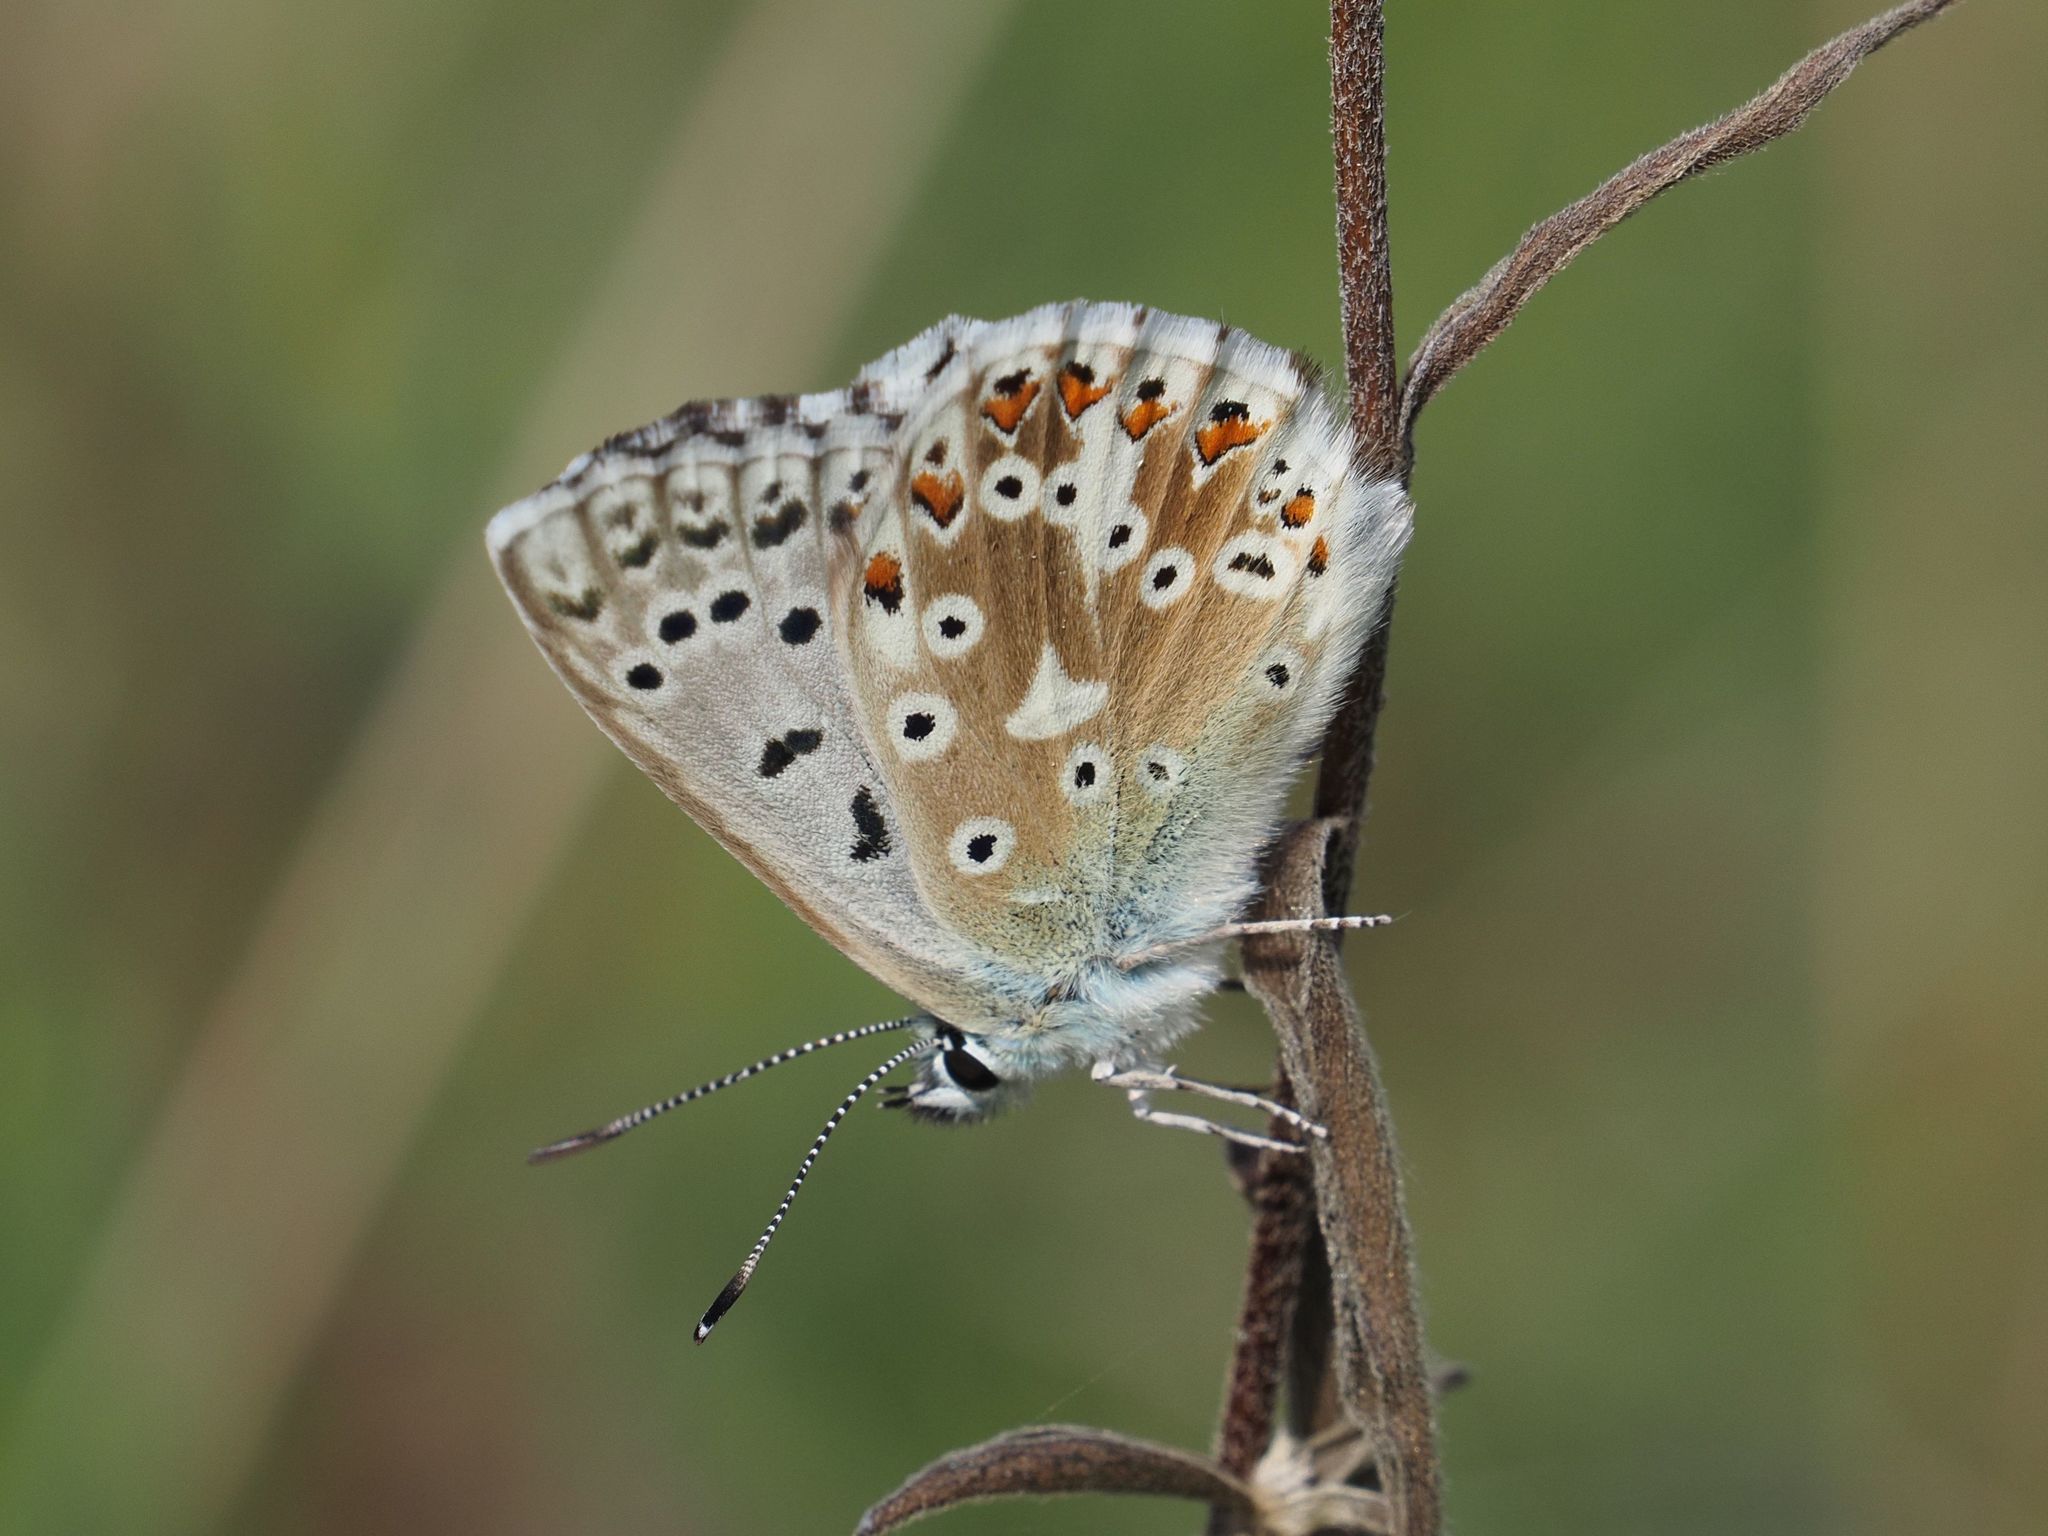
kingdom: Animalia
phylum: Arthropoda
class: Insecta
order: Lepidoptera
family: Lycaenidae
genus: Lysandra
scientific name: Lysandra coridon
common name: Chalkhill blue
